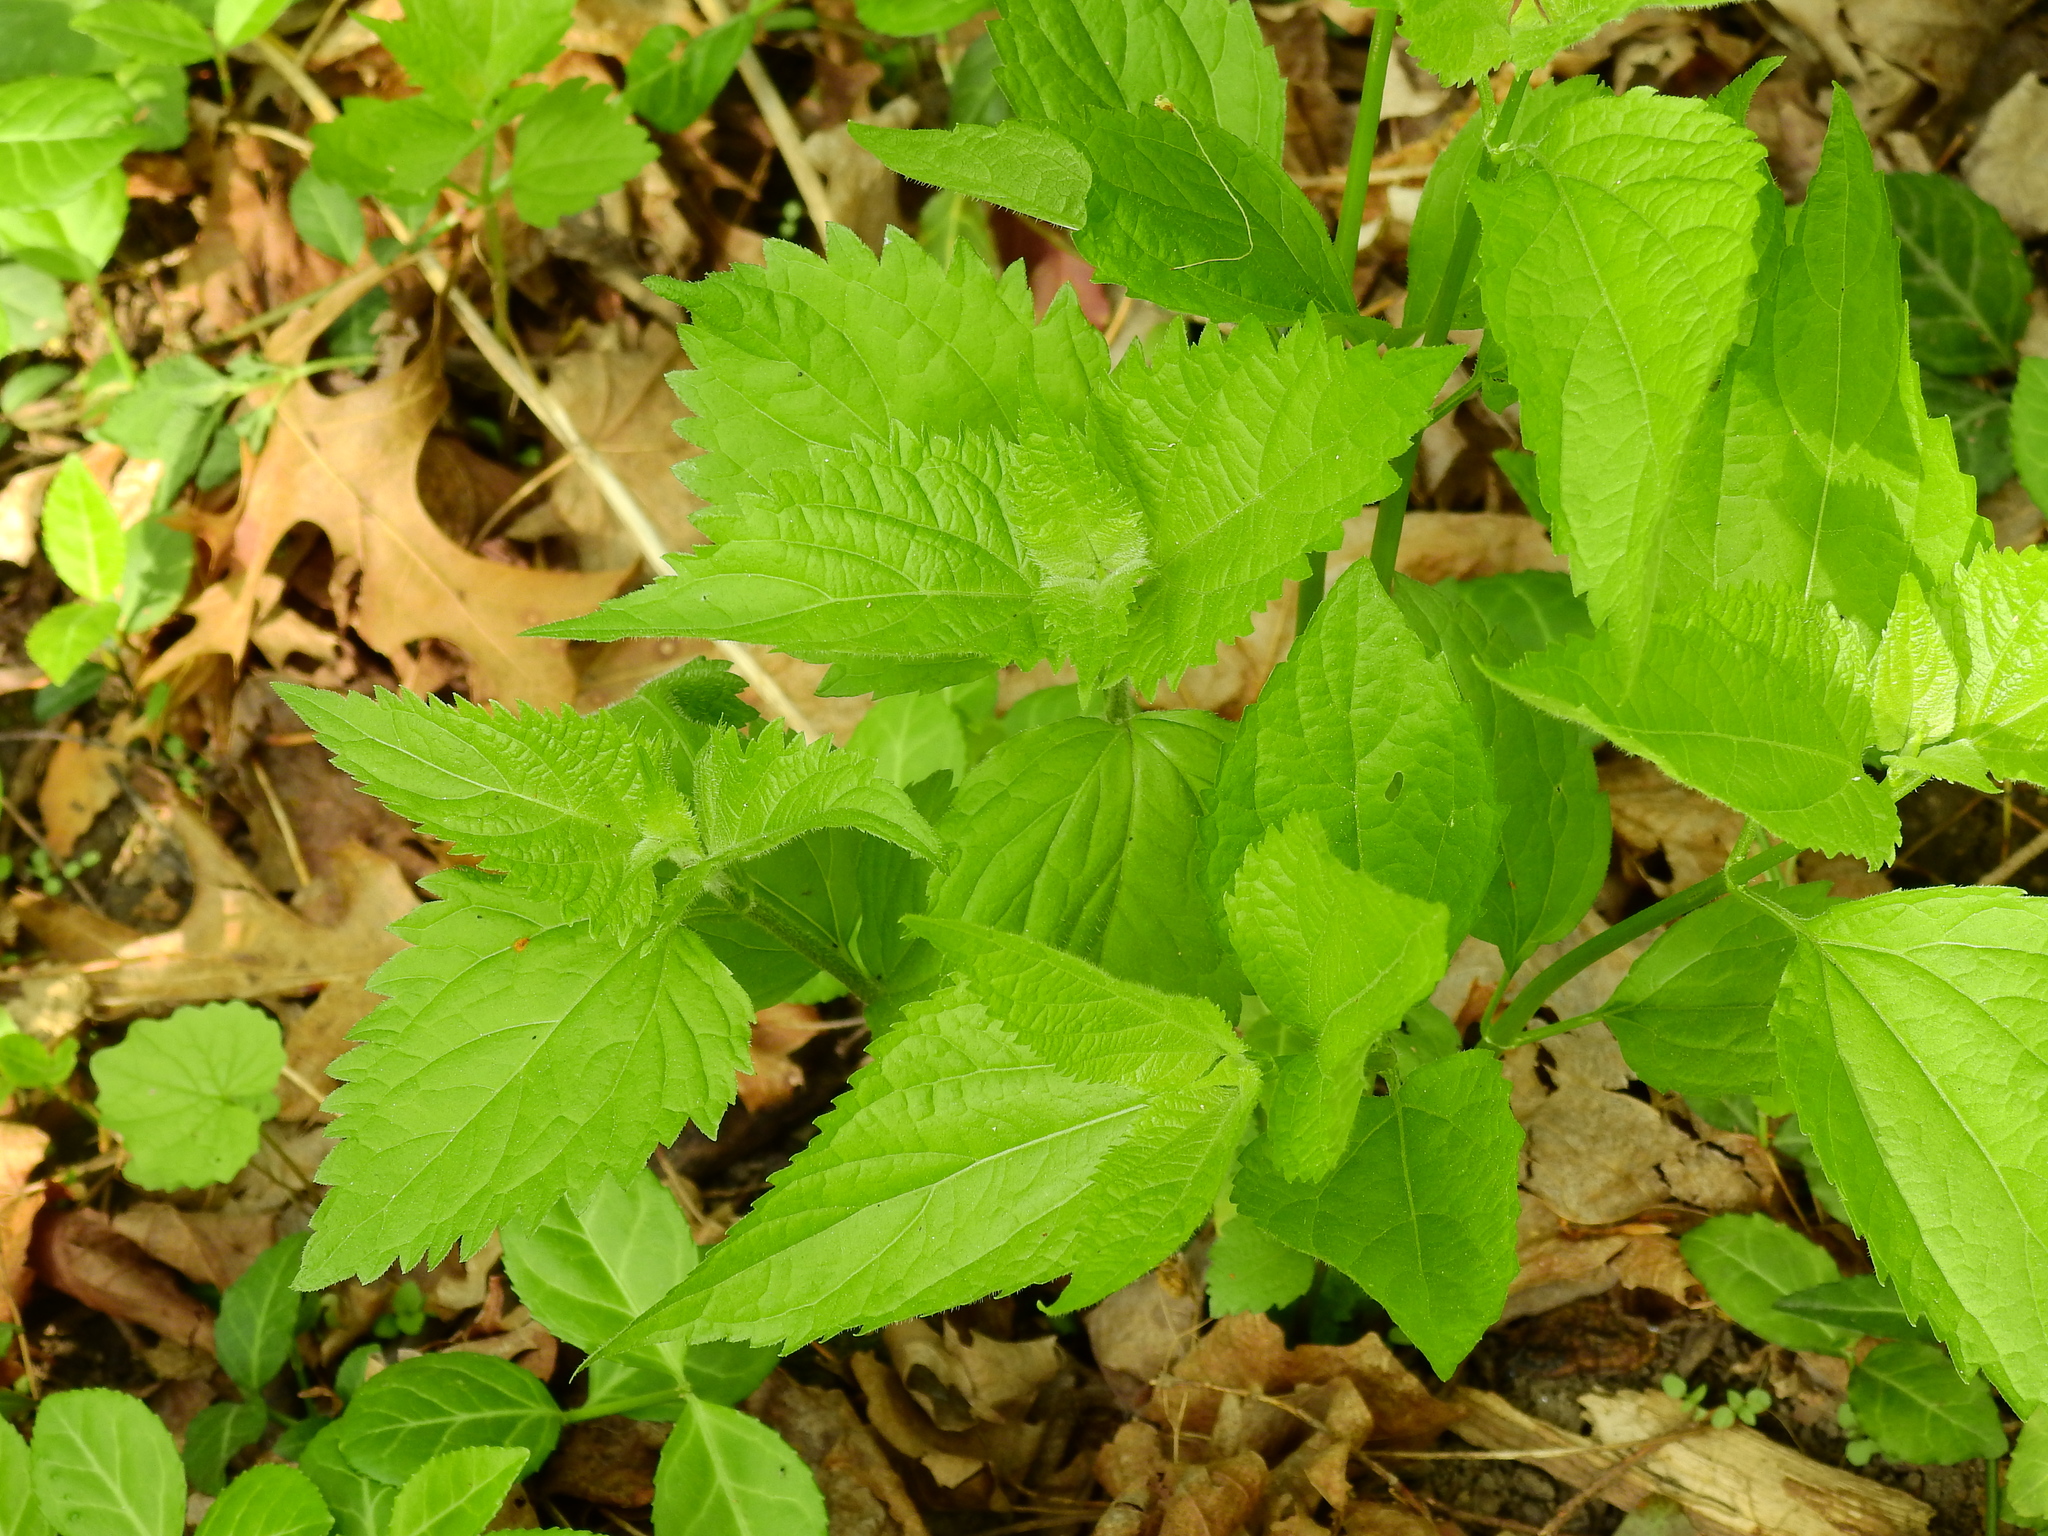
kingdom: Plantae
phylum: Tracheophyta
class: Magnoliopsida
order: Asterales
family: Asteraceae
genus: Ageratina
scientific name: Ageratina altissima
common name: White snakeroot
